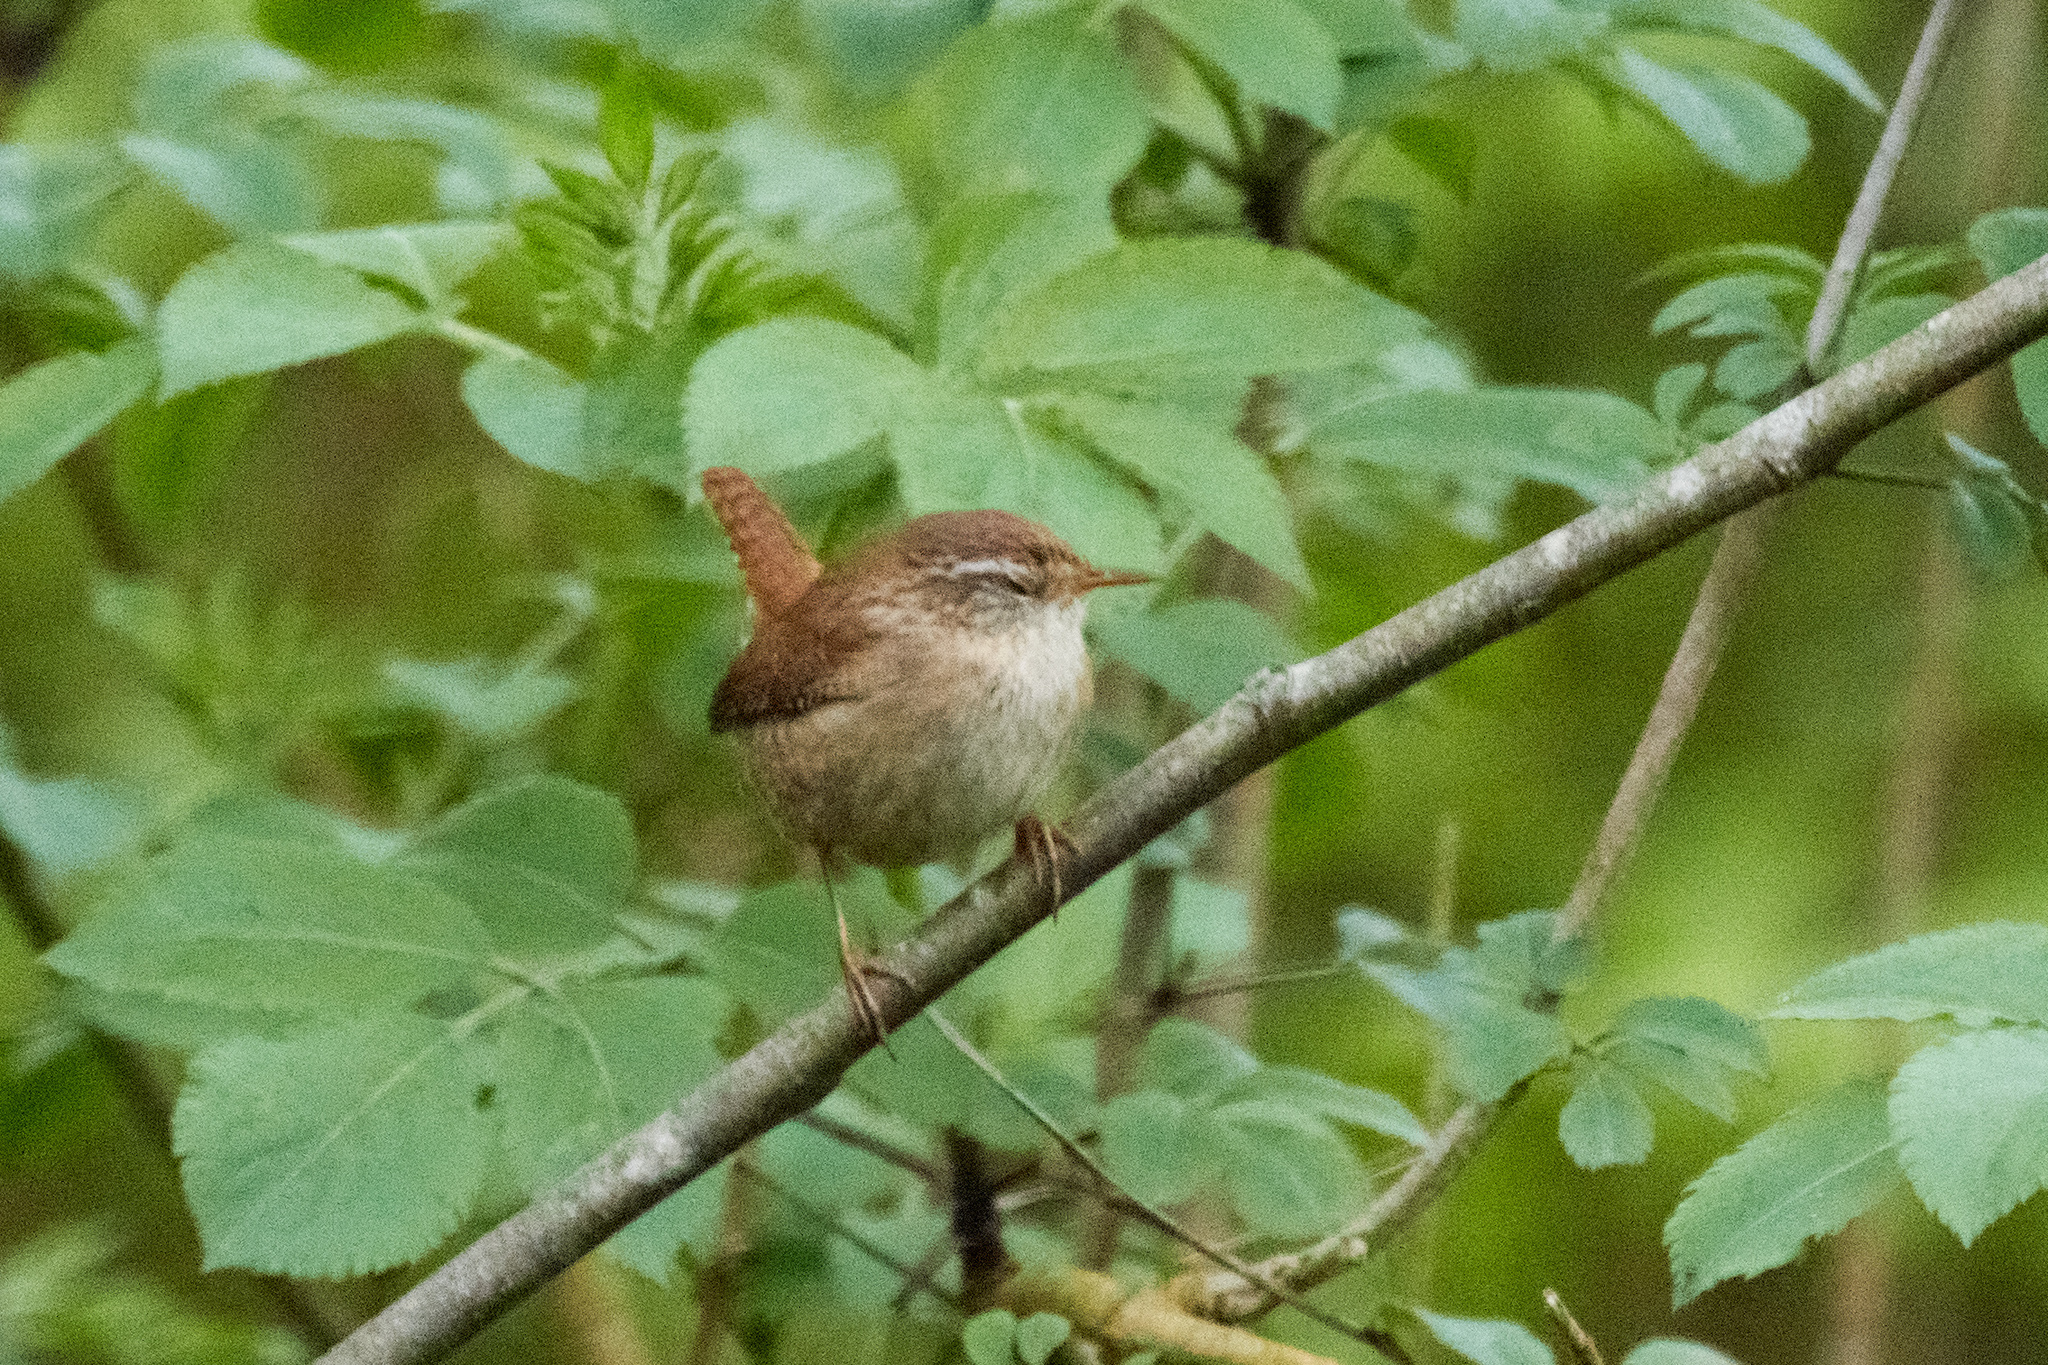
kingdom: Animalia
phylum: Chordata
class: Aves
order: Passeriformes
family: Troglodytidae
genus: Troglodytes
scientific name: Troglodytes troglodytes
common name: Eurasian wren
